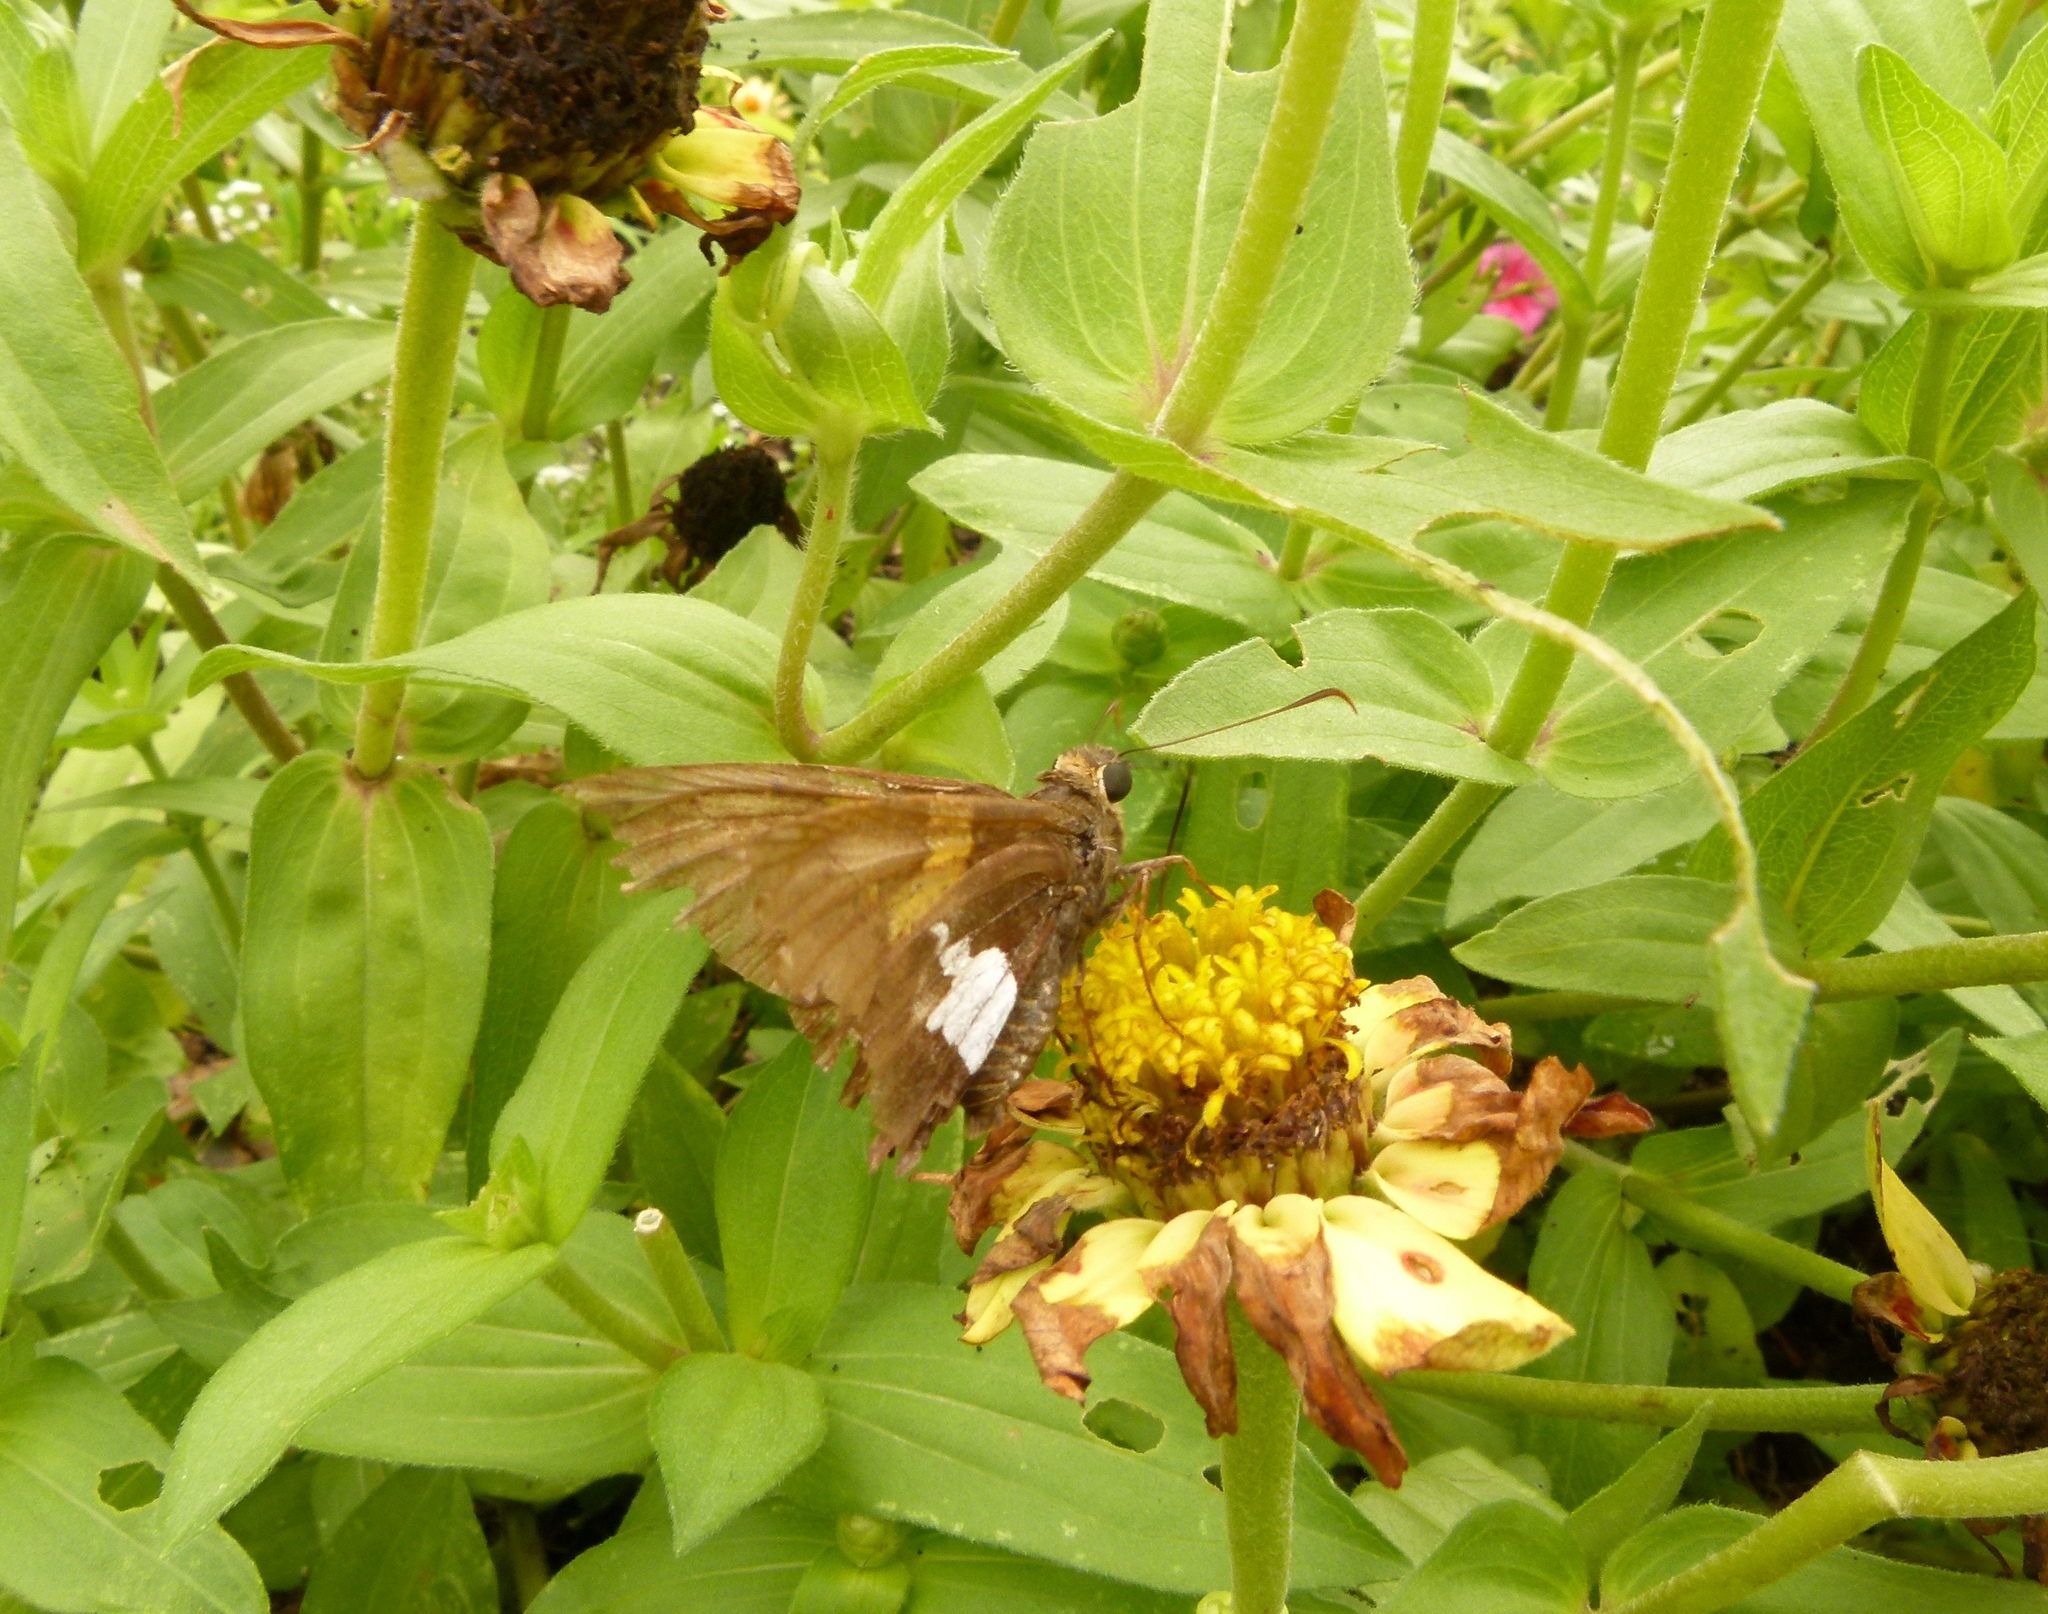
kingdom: Animalia
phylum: Arthropoda
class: Insecta
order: Lepidoptera
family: Hesperiidae
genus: Epargyreus
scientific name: Epargyreus clarus
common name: Silver-spotted skipper
